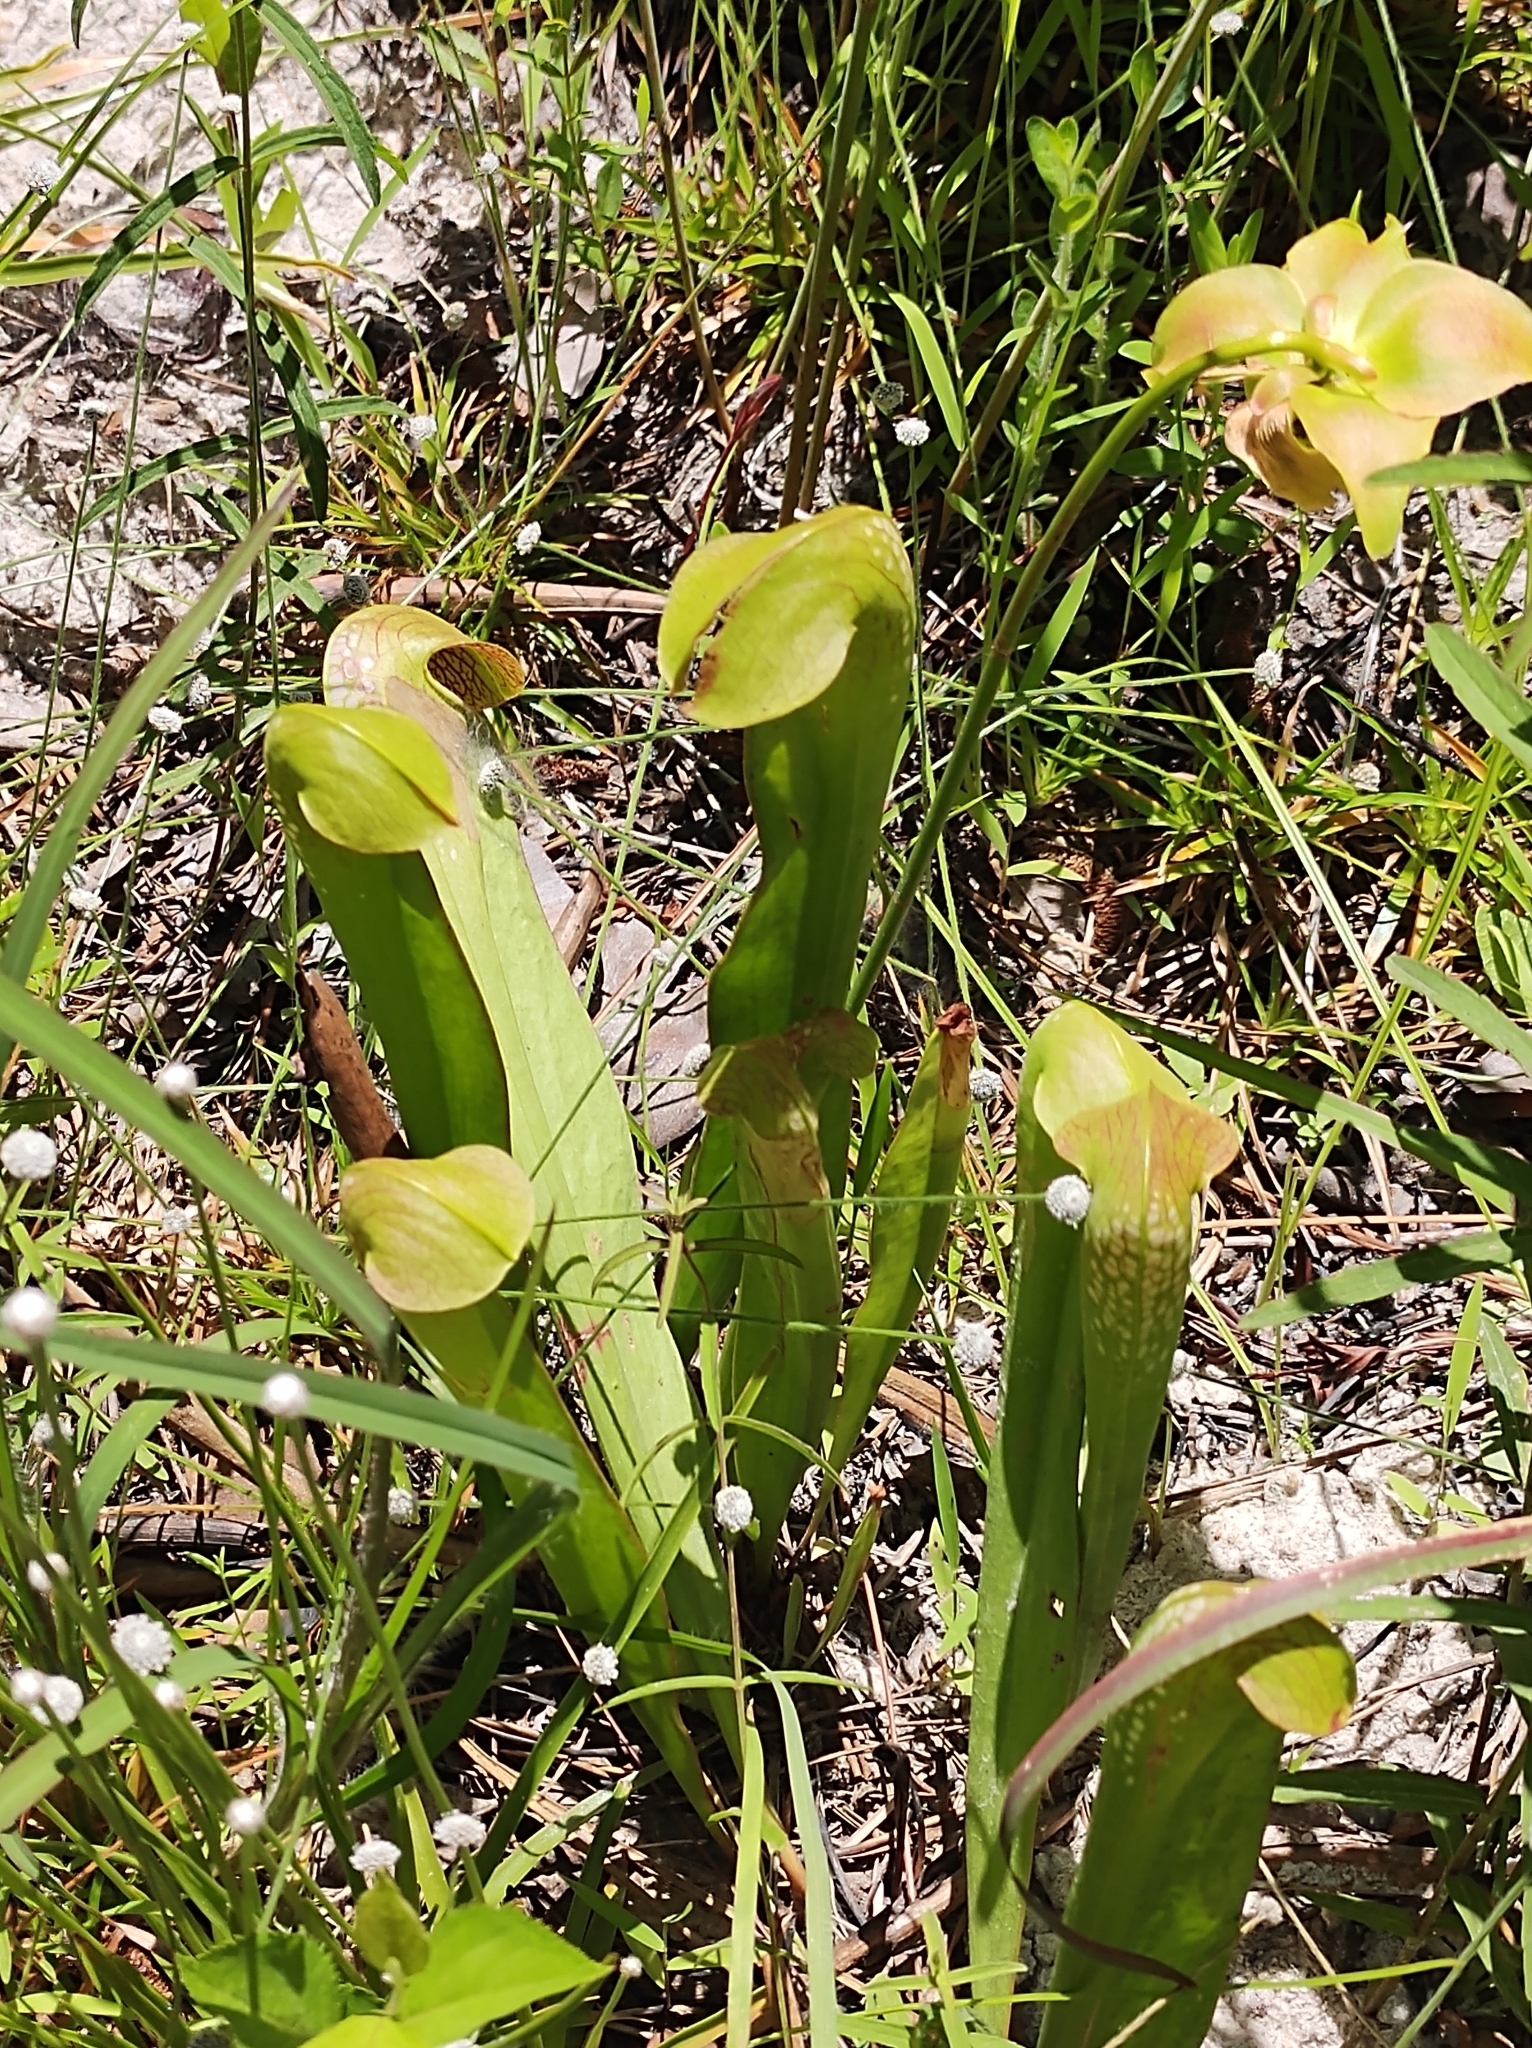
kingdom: Plantae
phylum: Tracheophyta
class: Magnoliopsida
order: Ericales
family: Sarraceniaceae
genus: Sarracenia
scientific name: Sarracenia minor
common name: Rainhat-trumpet
